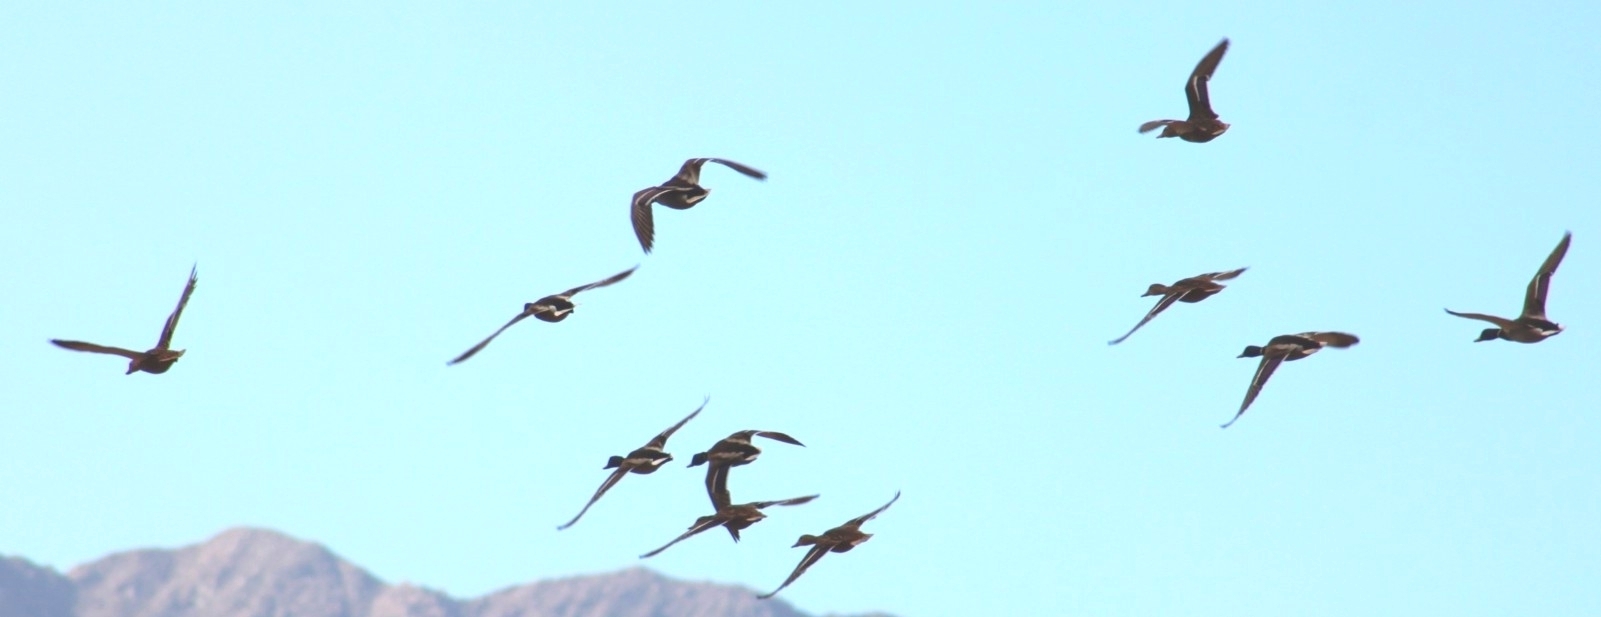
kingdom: Animalia
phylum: Chordata
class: Aves
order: Anseriformes
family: Anatidae
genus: Anas
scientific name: Anas platyrhynchos
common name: Mallard
